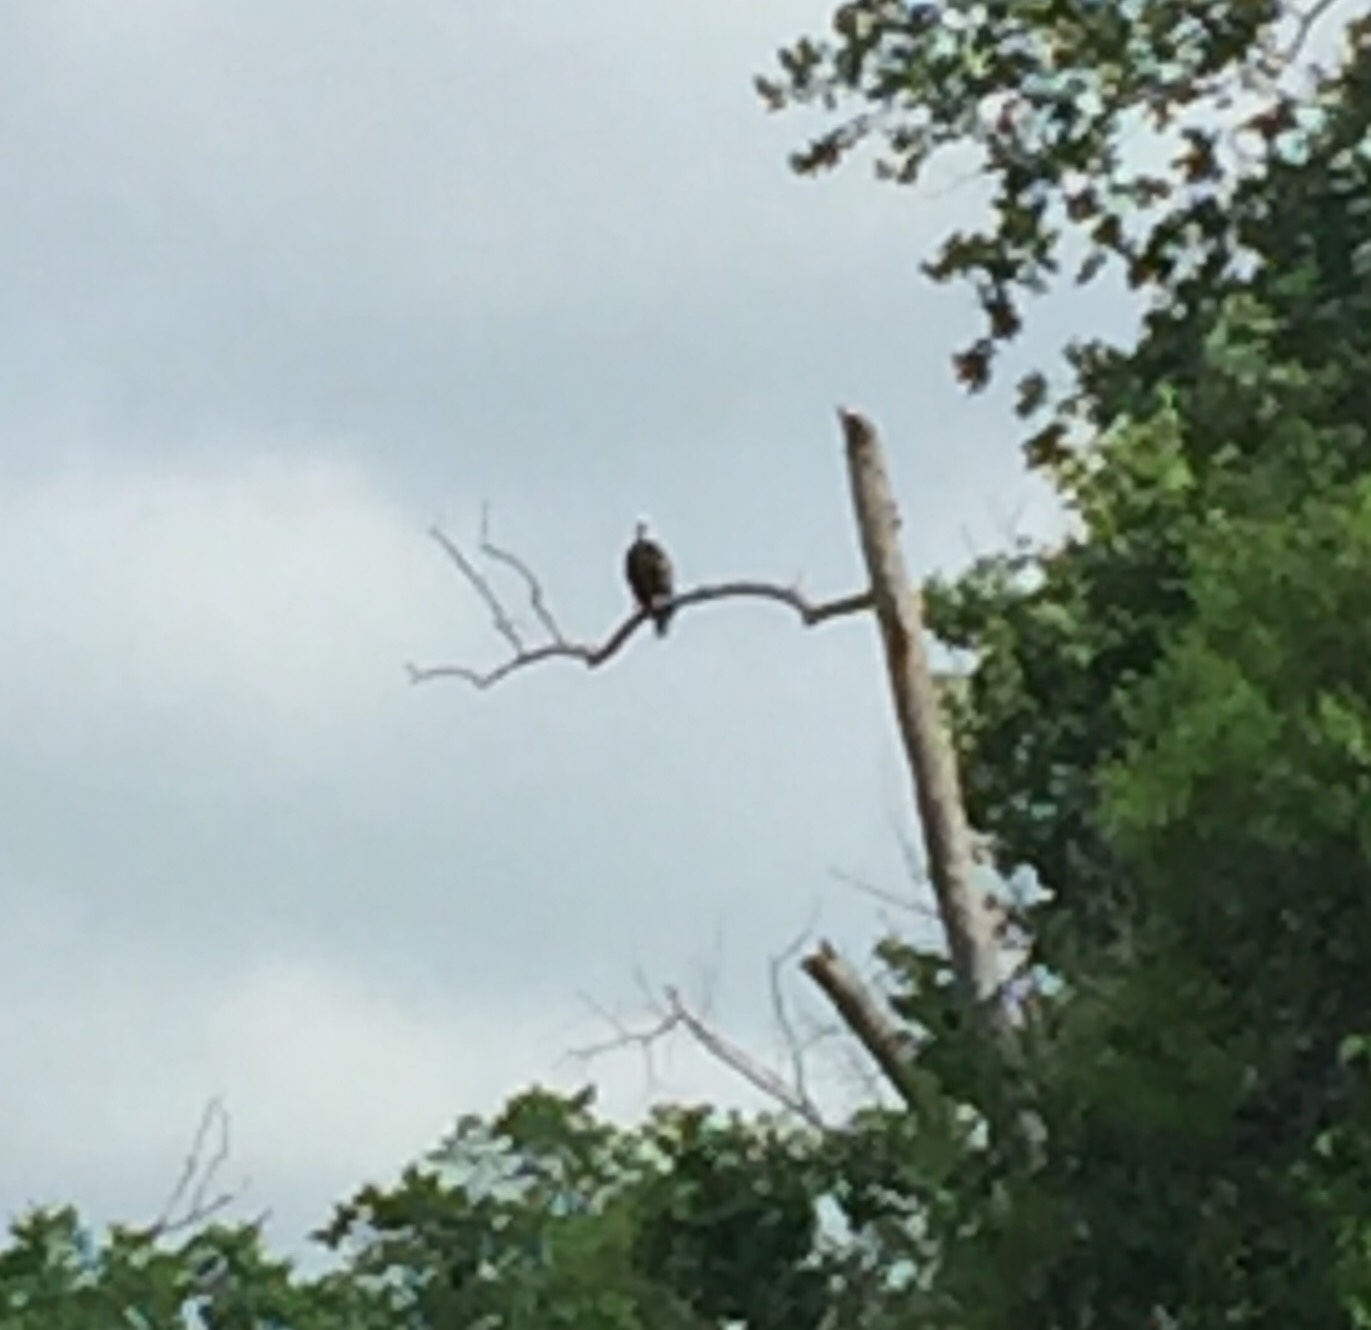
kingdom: Animalia
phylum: Chordata
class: Aves
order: Accipitriformes
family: Accipitridae
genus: Haliaeetus
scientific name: Haliaeetus leucocephalus
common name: Bald eagle
